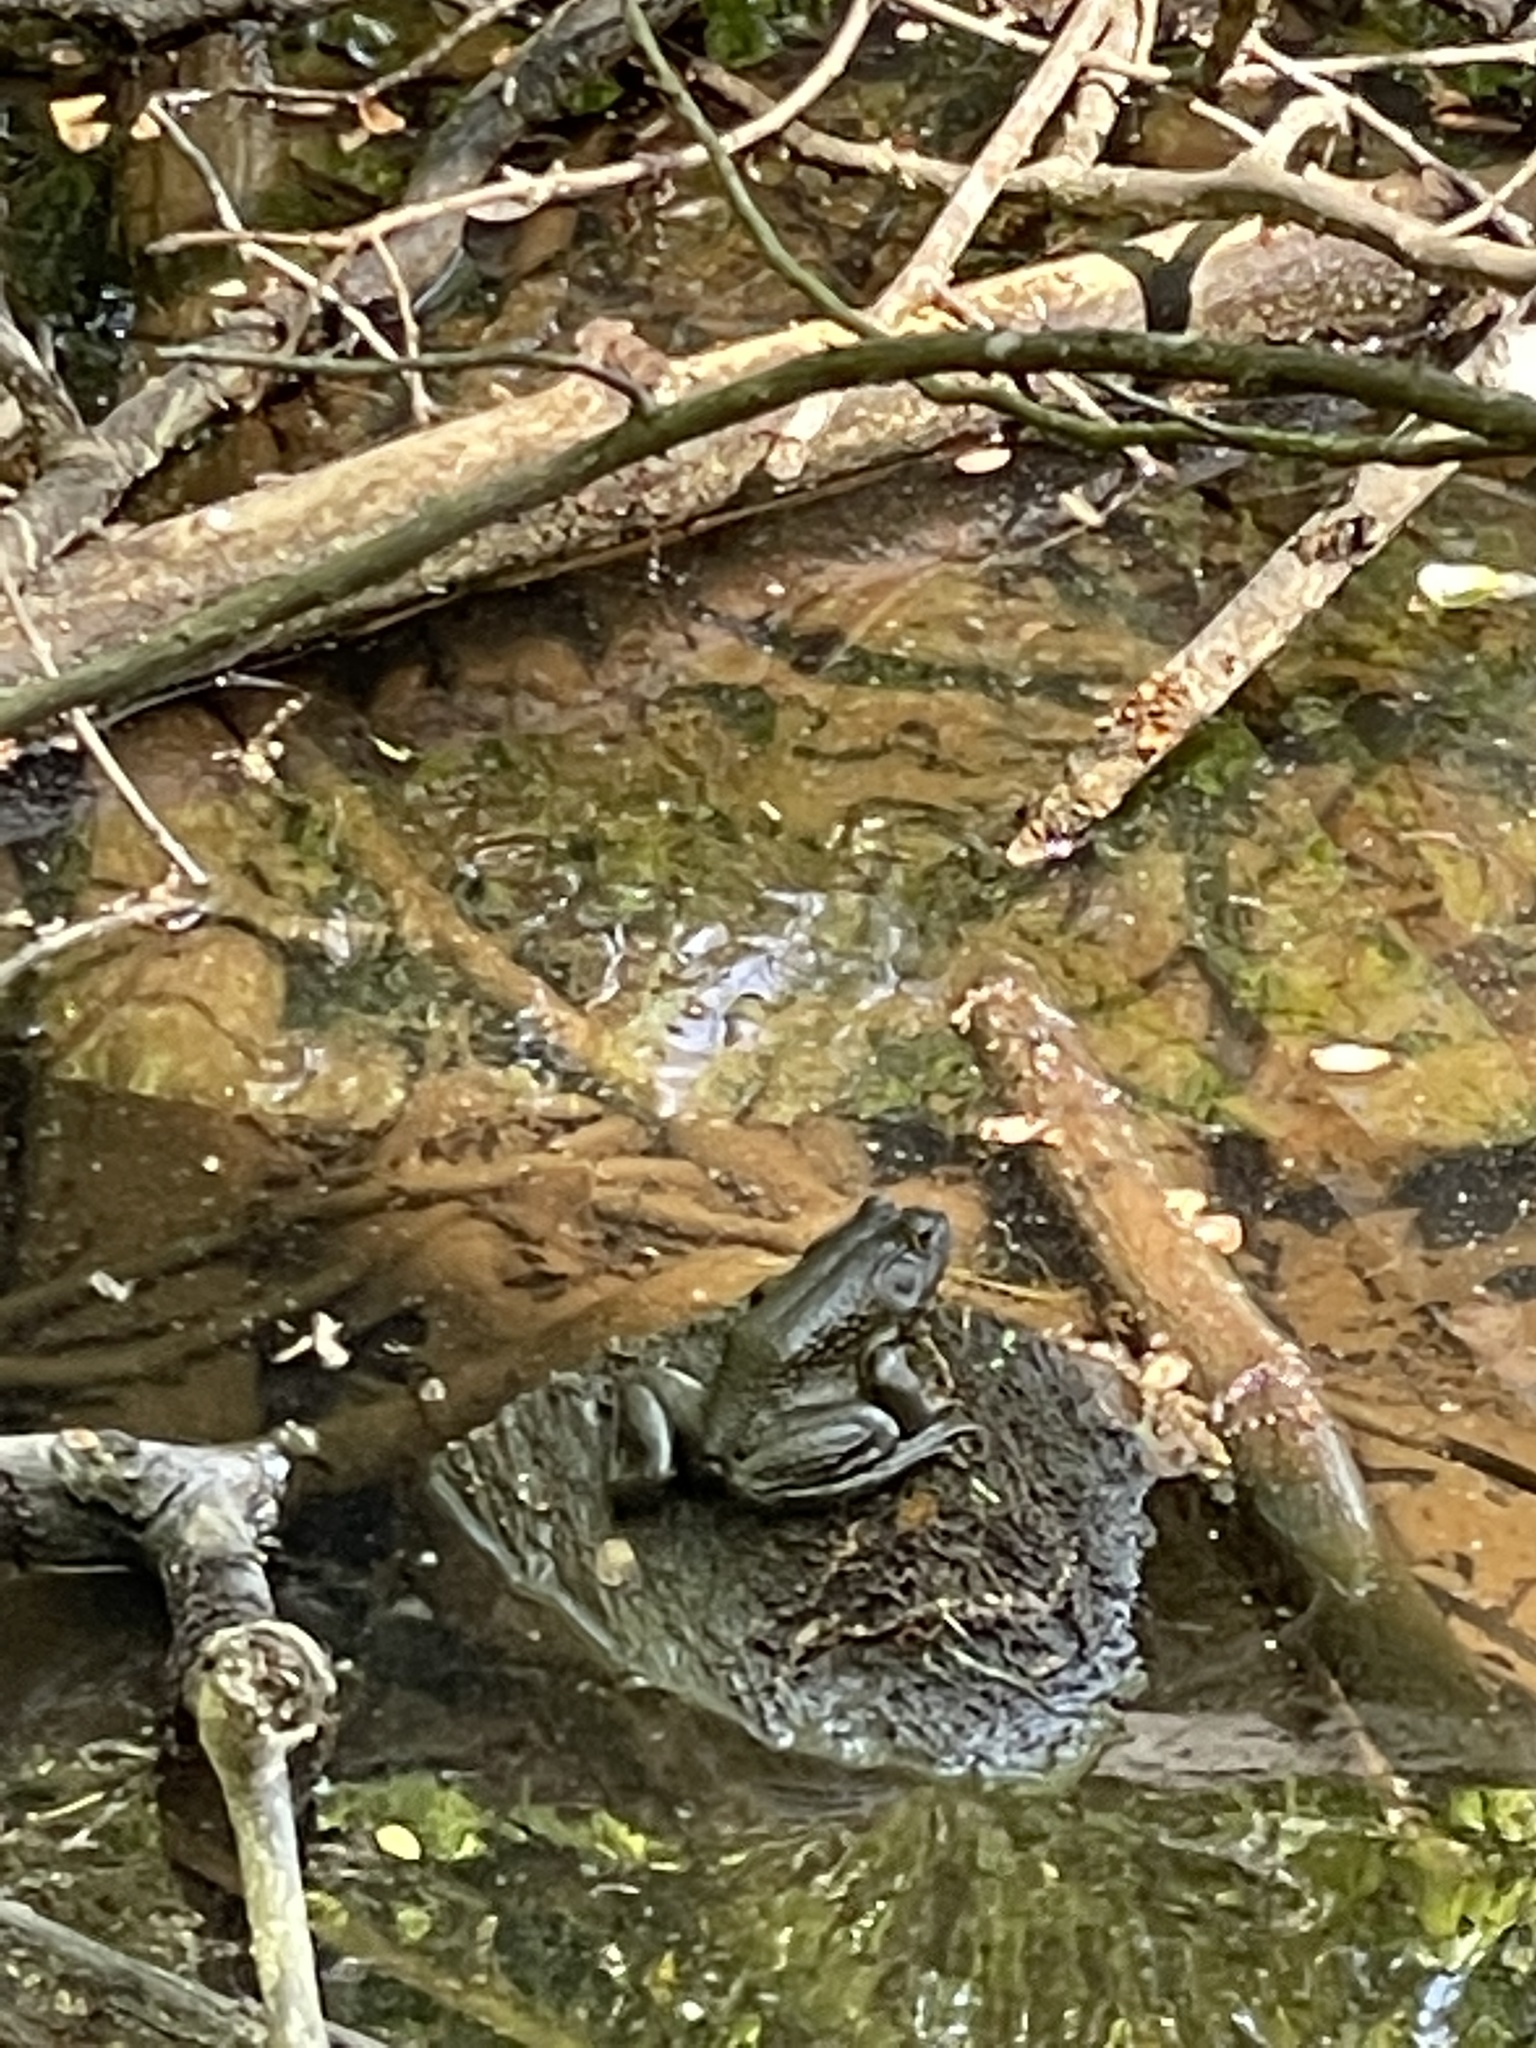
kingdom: Animalia
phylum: Chordata
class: Amphibia
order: Anura
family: Ranidae
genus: Lithobates
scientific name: Lithobates catesbeianus
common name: American bullfrog
